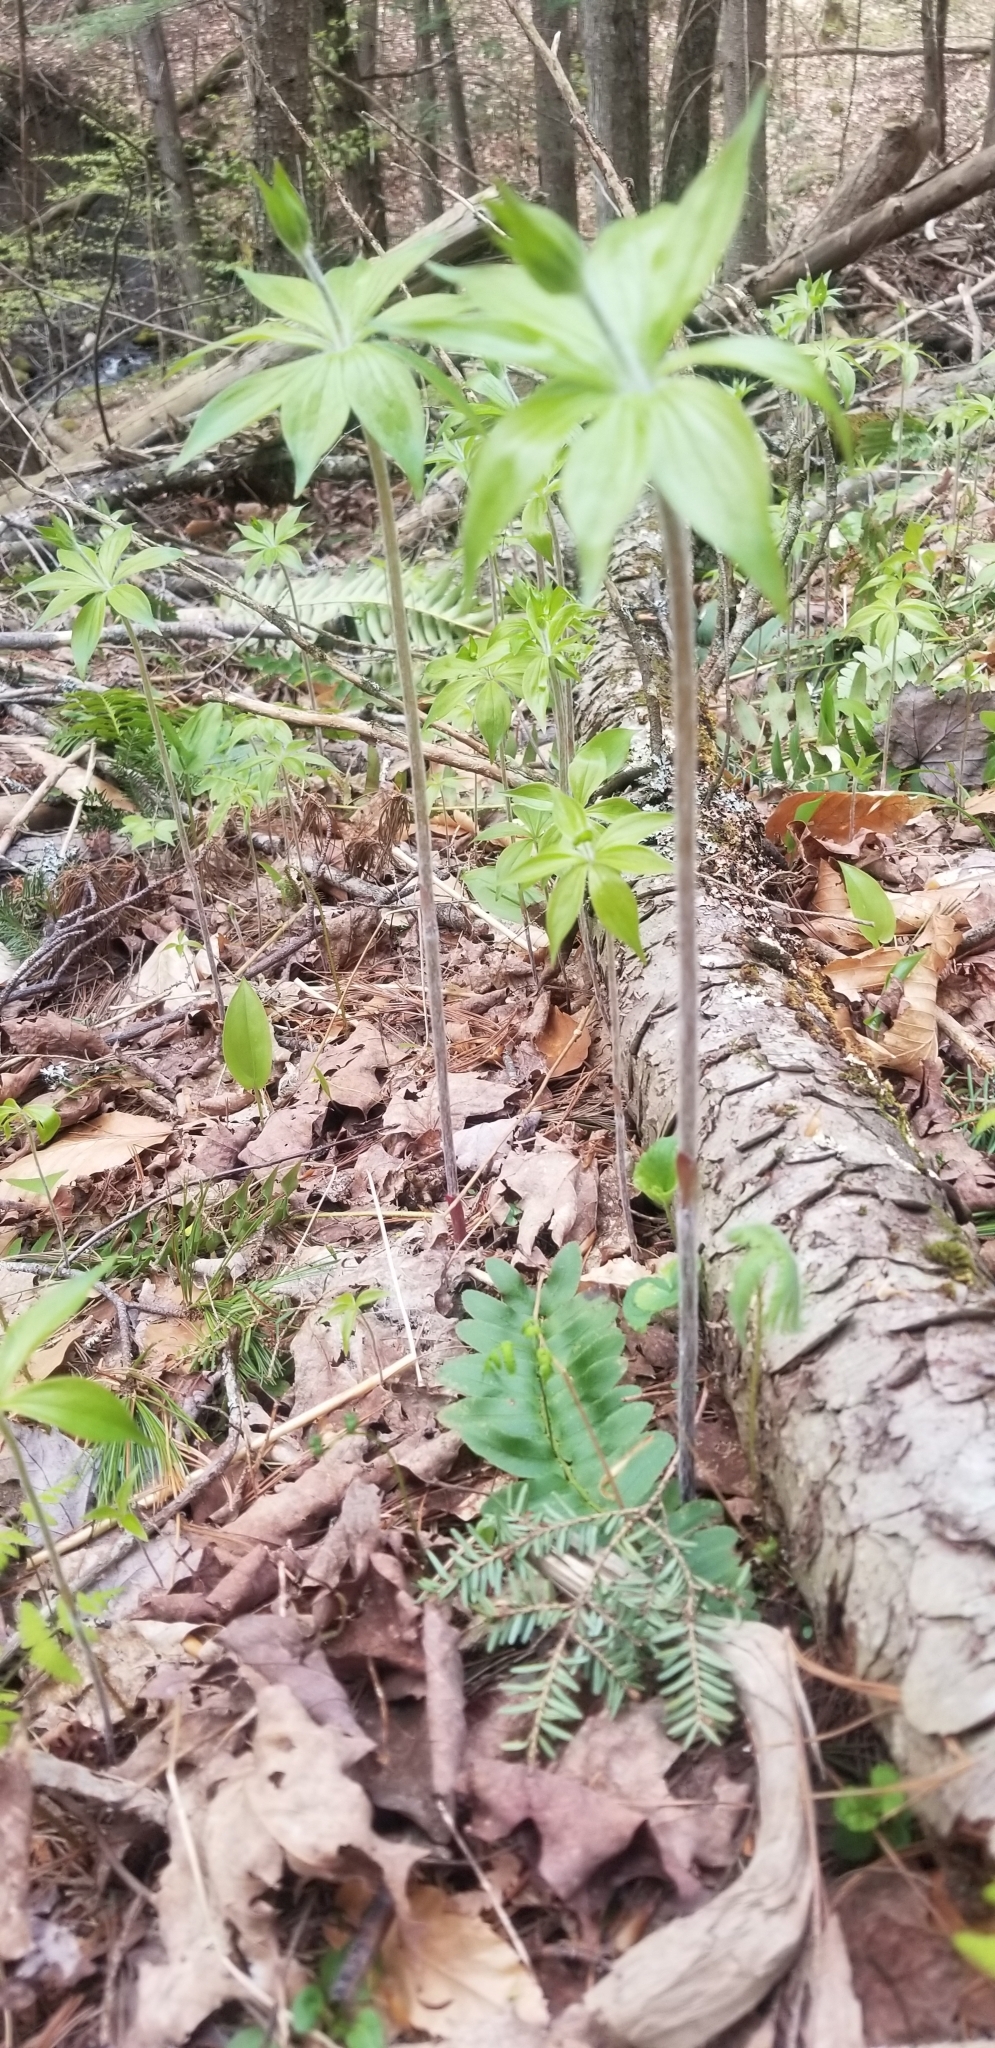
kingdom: Plantae
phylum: Tracheophyta
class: Liliopsida
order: Liliales
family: Liliaceae
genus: Medeola
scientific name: Medeola virginiana
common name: Indian cucumber-root
